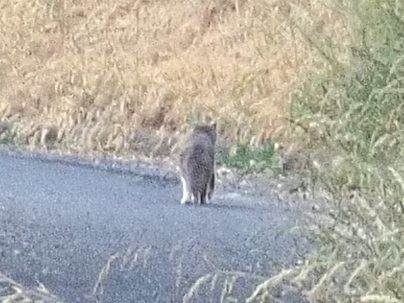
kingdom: Animalia
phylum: Chordata
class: Mammalia
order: Carnivora
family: Felidae
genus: Felis
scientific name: Felis catus
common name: Domestic cat
